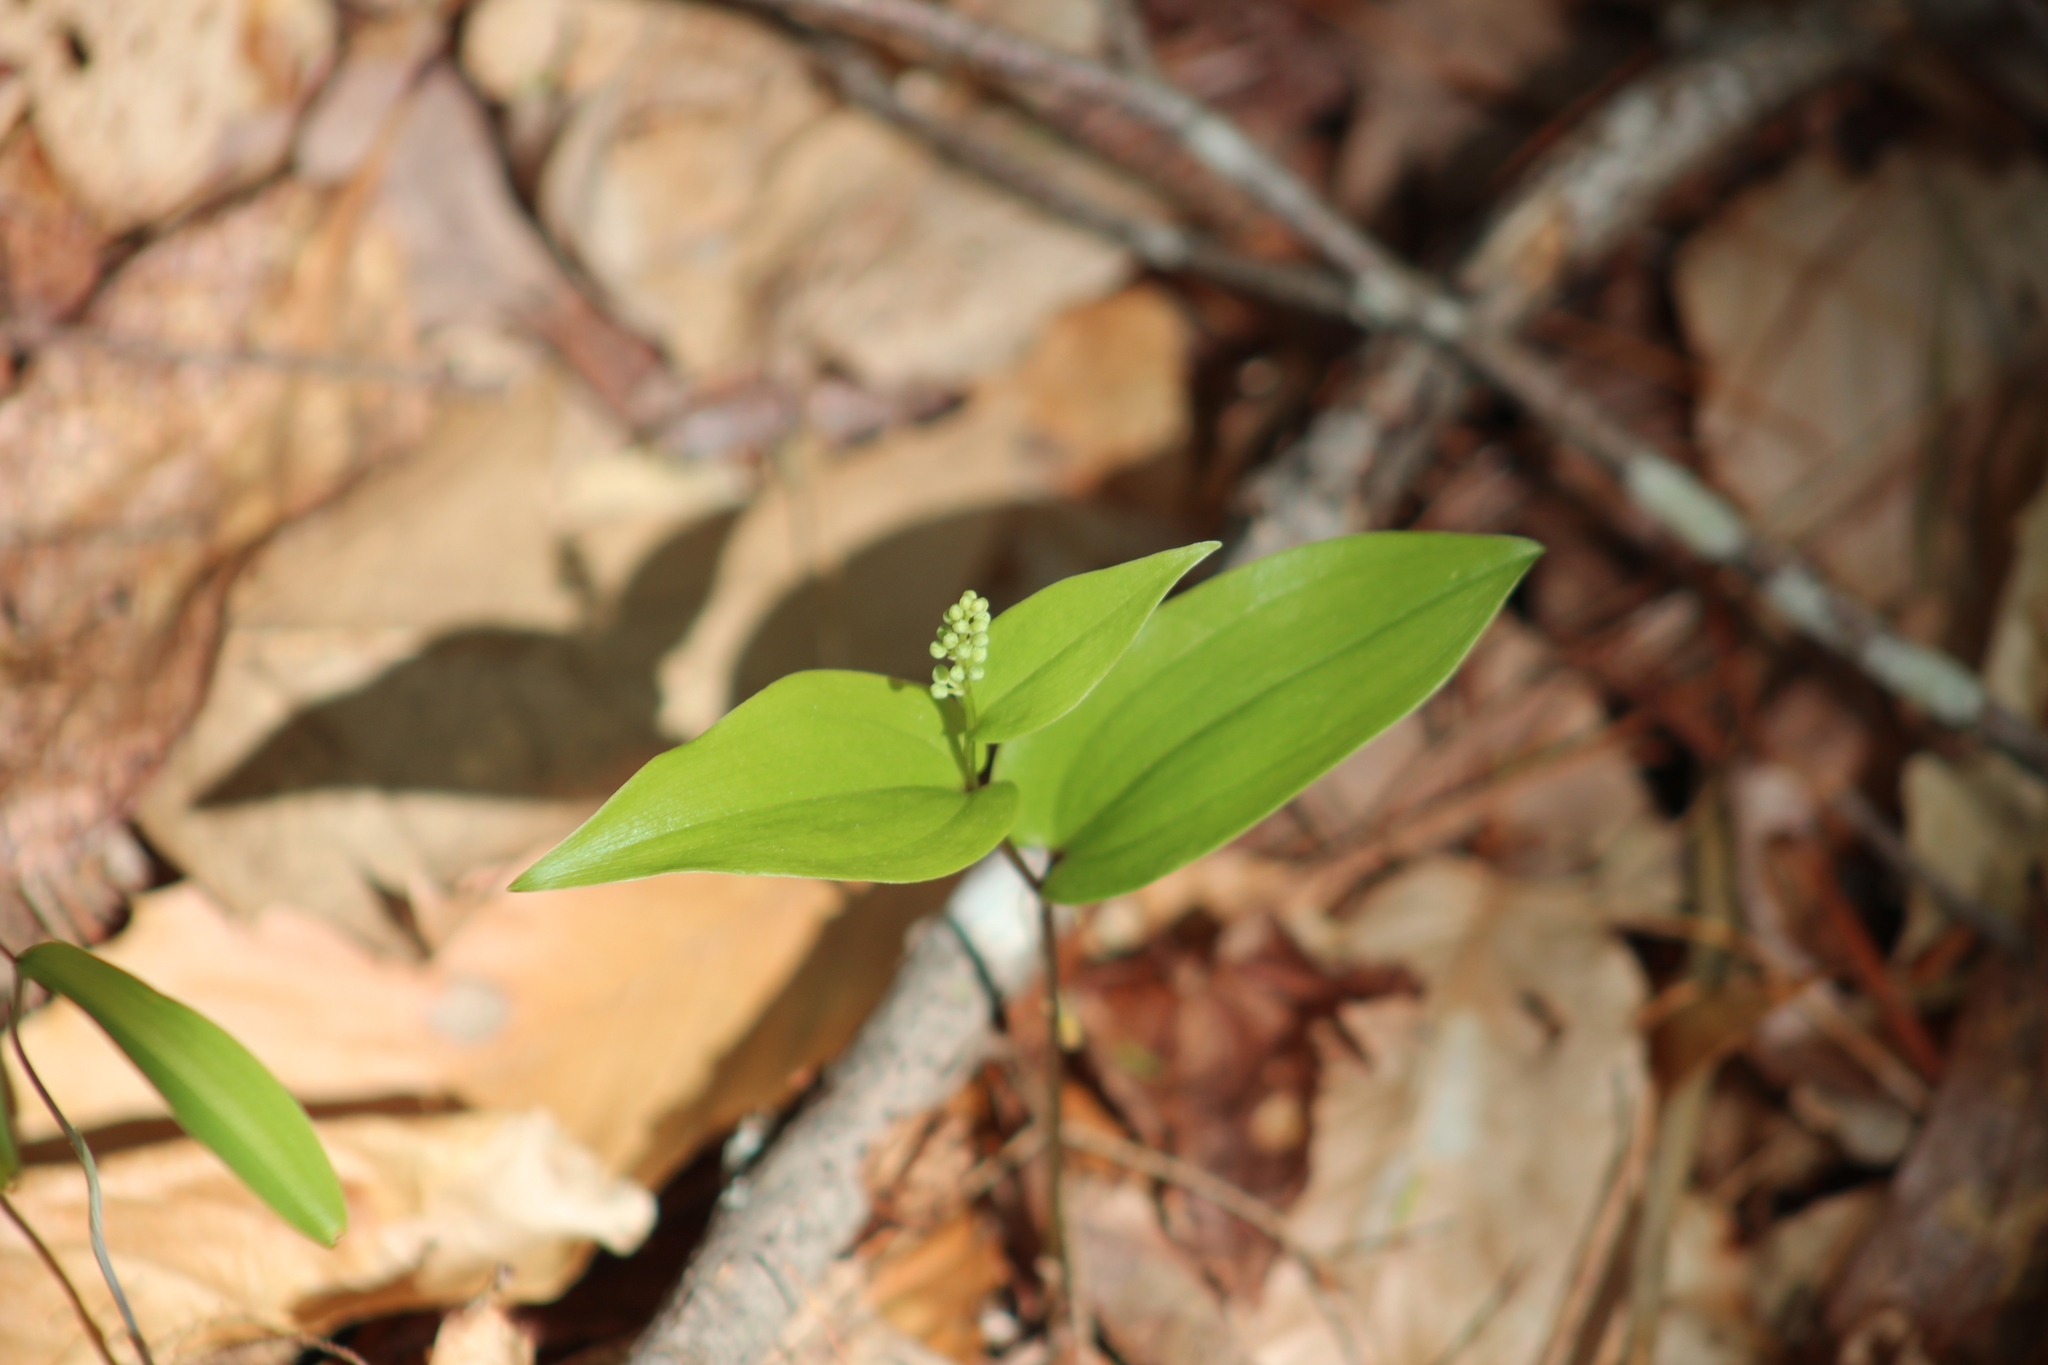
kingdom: Plantae
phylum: Tracheophyta
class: Liliopsida
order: Asparagales
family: Asparagaceae
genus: Maianthemum
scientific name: Maianthemum canadense
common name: False lily-of-the-valley
